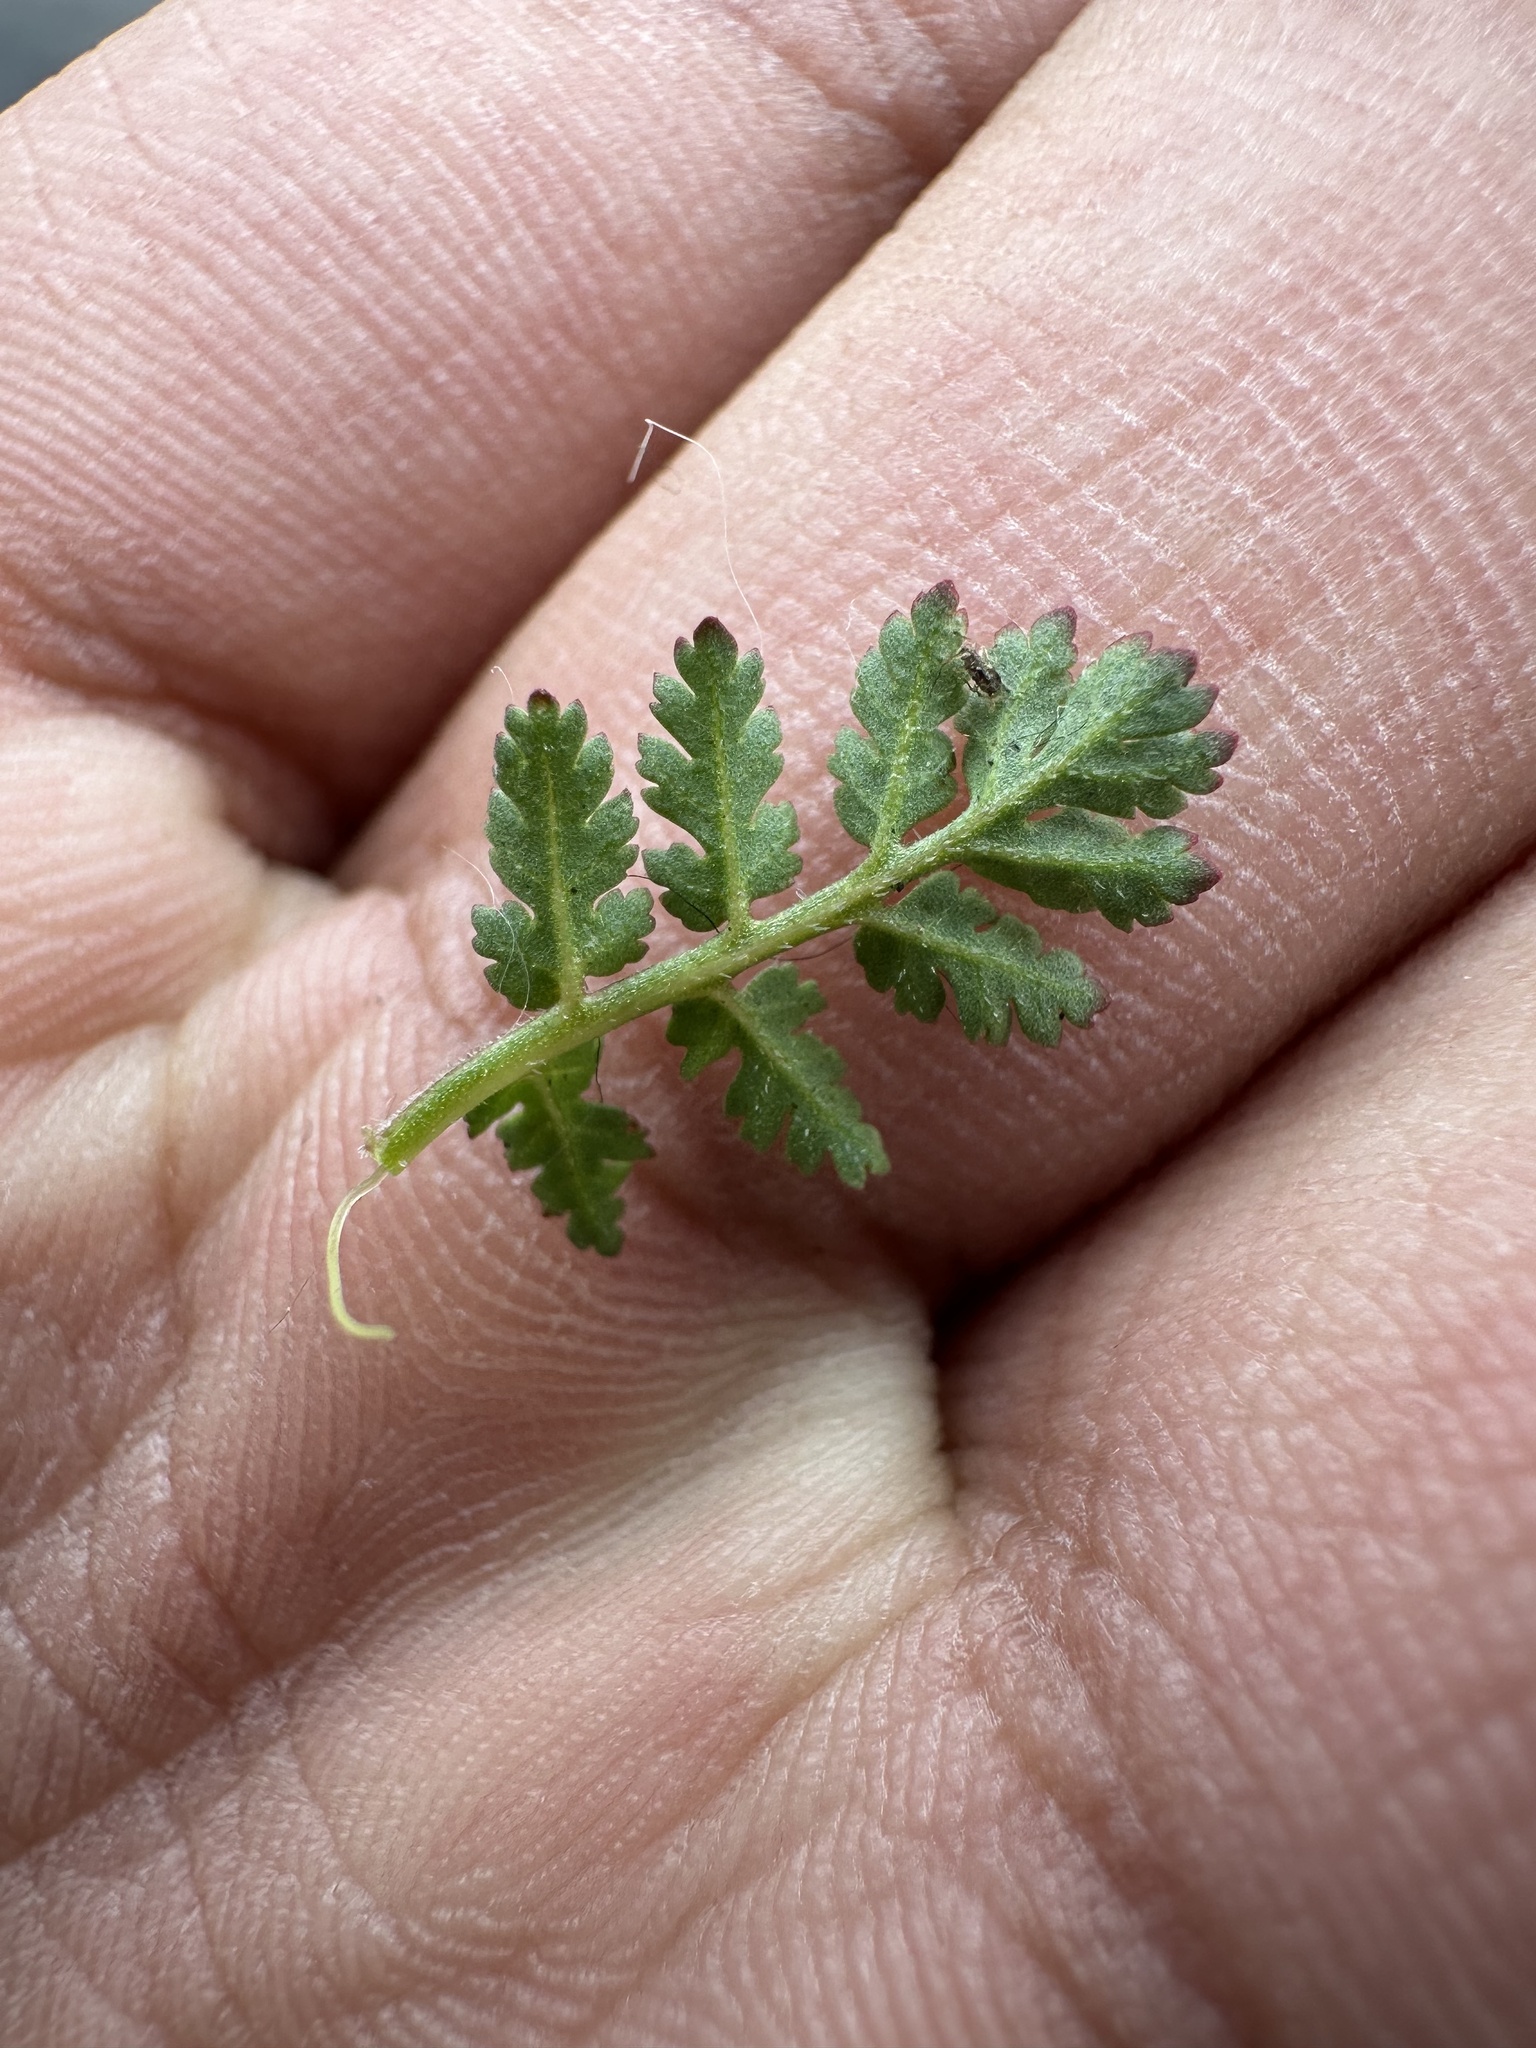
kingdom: Plantae
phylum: Tracheophyta
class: Magnoliopsida
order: Geraniales
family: Geraniaceae
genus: Erodium
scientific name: Erodium cicutarium
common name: Common stork's-bill
